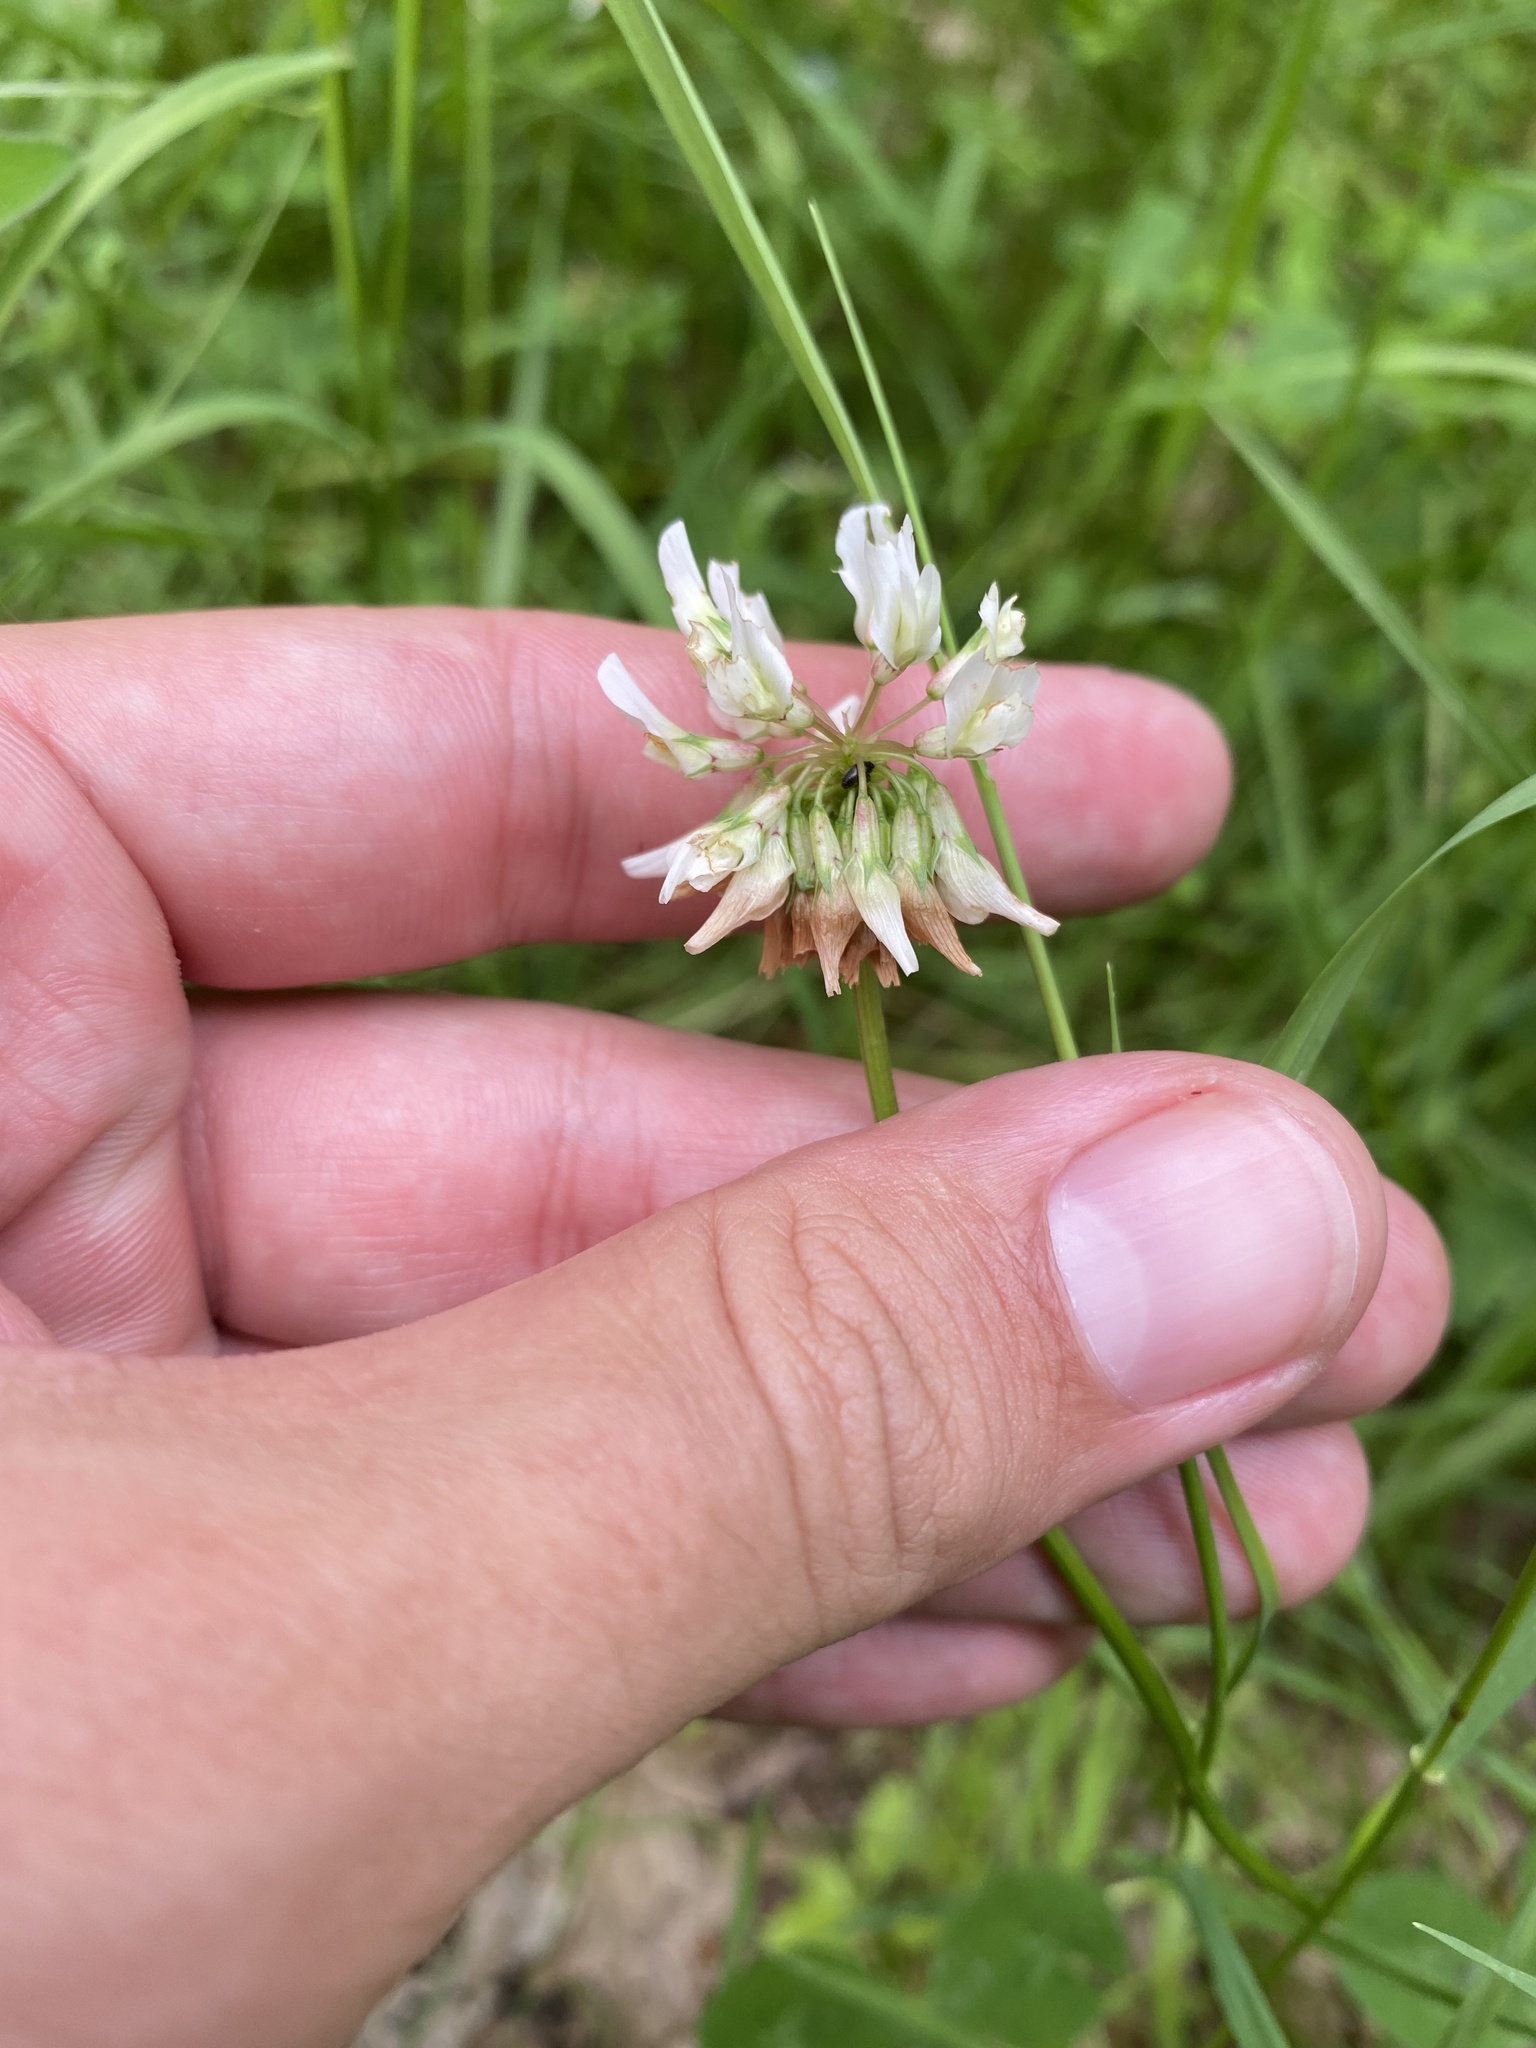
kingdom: Plantae
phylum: Tracheophyta
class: Magnoliopsida
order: Fabales
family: Fabaceae
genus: Trifolium
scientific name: Trifolium repens
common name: White clover
